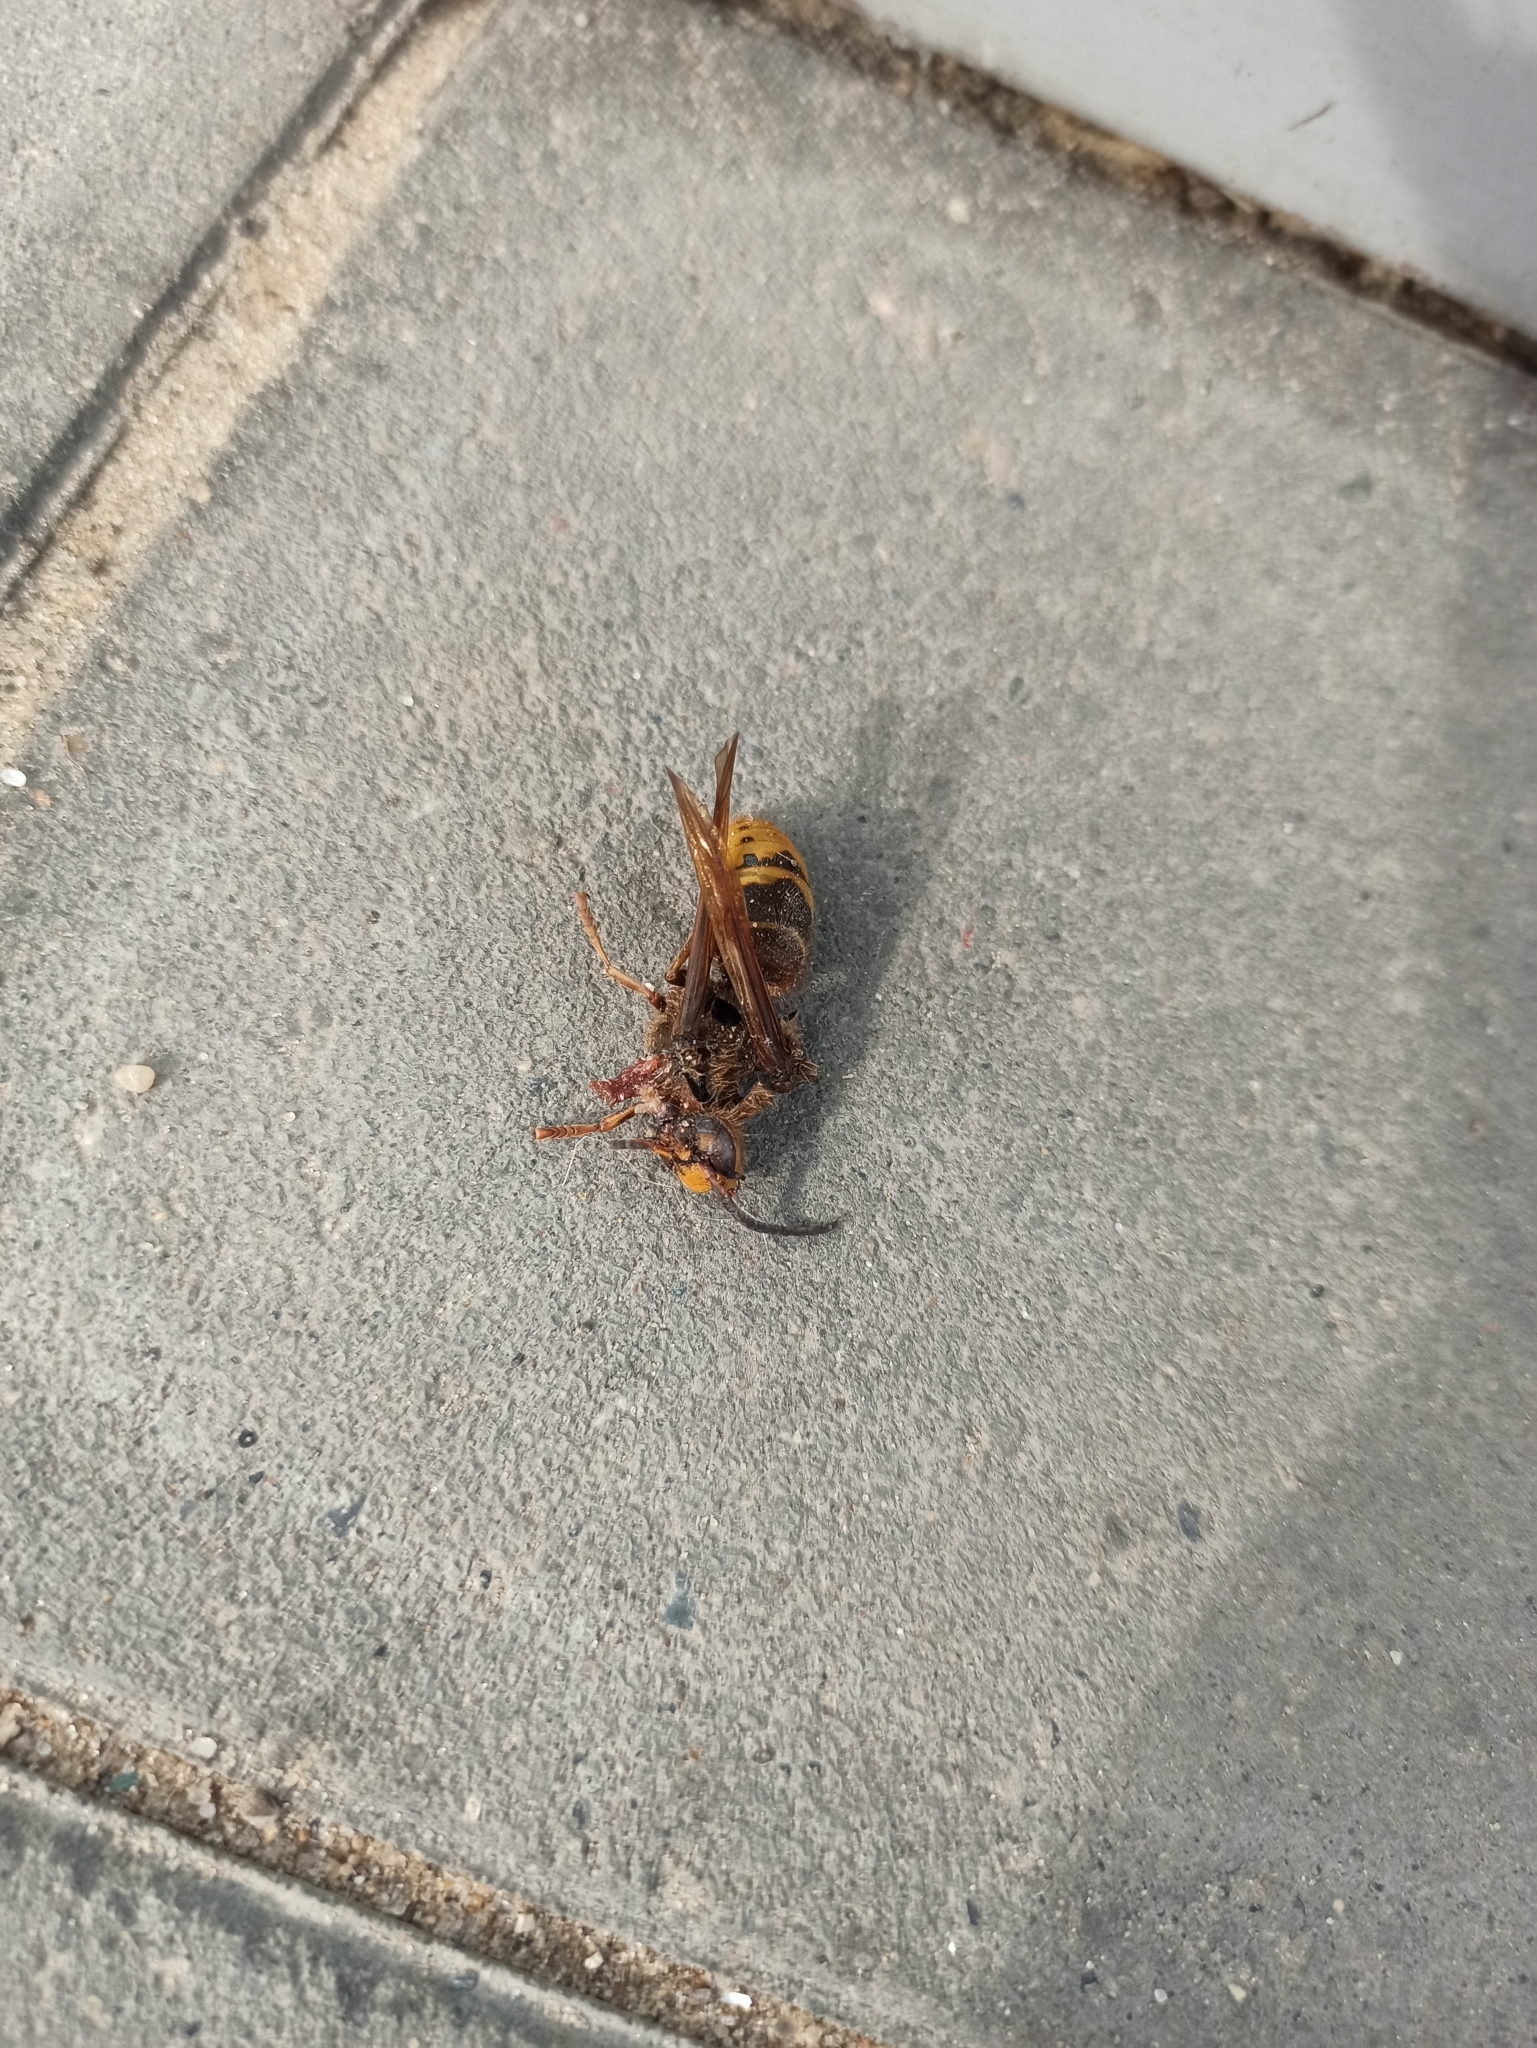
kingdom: Animalia
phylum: Arthropoda
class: Insecta
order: Hymenoptera
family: Vespidae
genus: Vespa
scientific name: Vespa crabro
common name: Hornet
